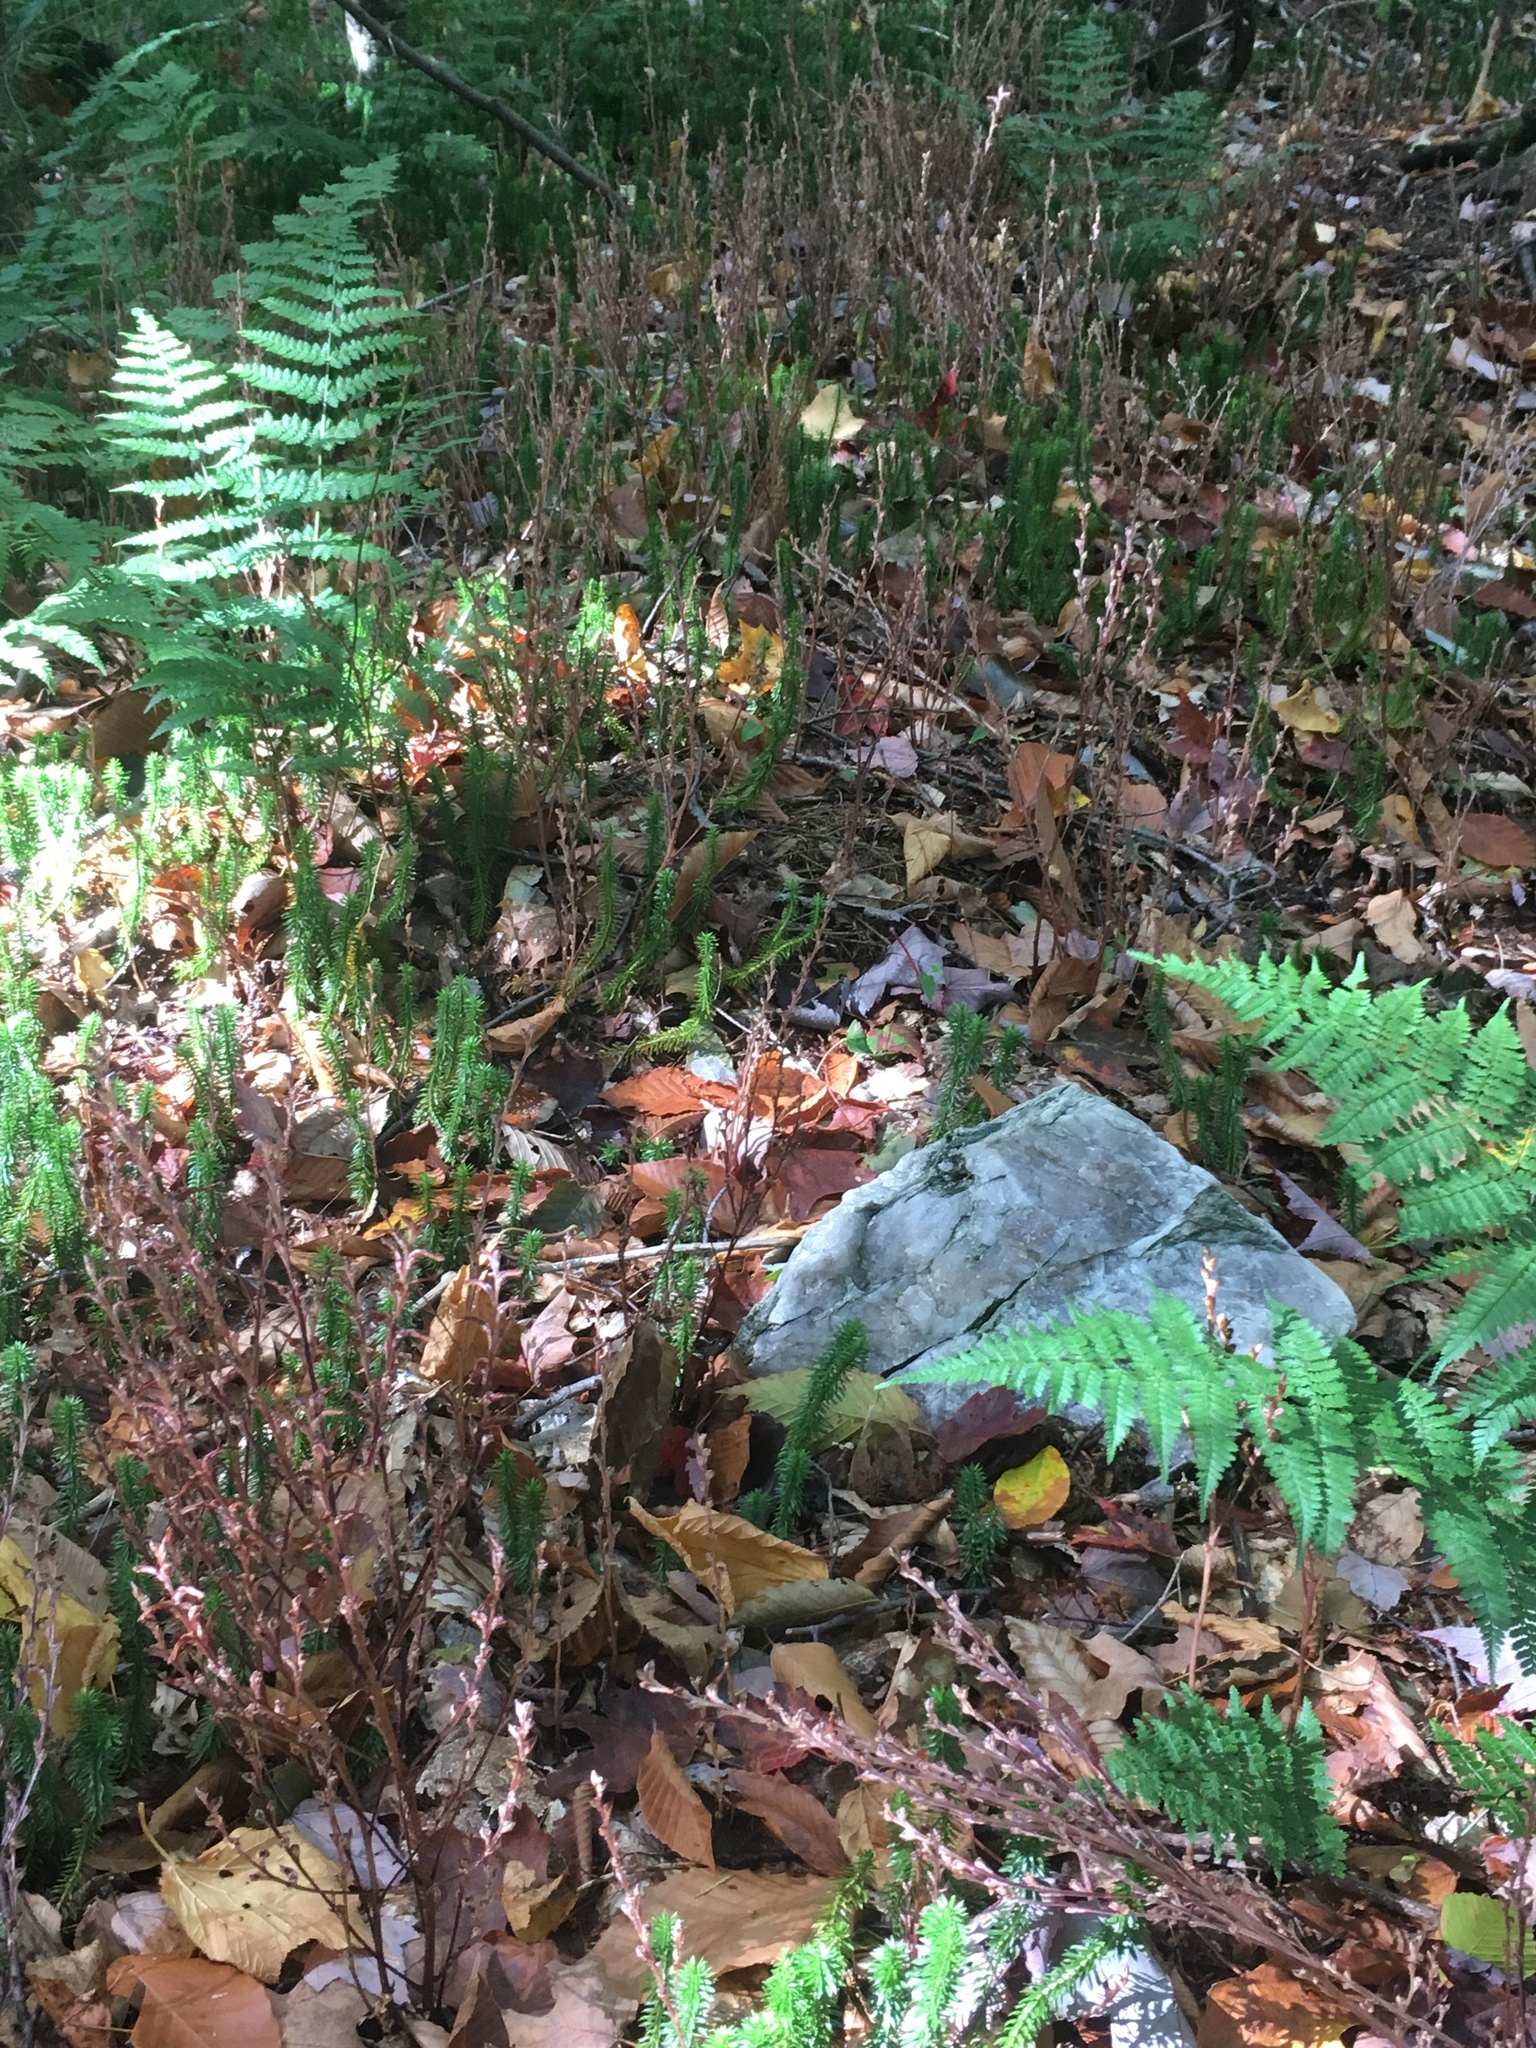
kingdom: Plantae
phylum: Tracheophyta
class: Magnoliopsida
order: Lamiales
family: Orobanchaceae
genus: Epifagus
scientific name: Epifagus virginiana
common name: Beechdrops
